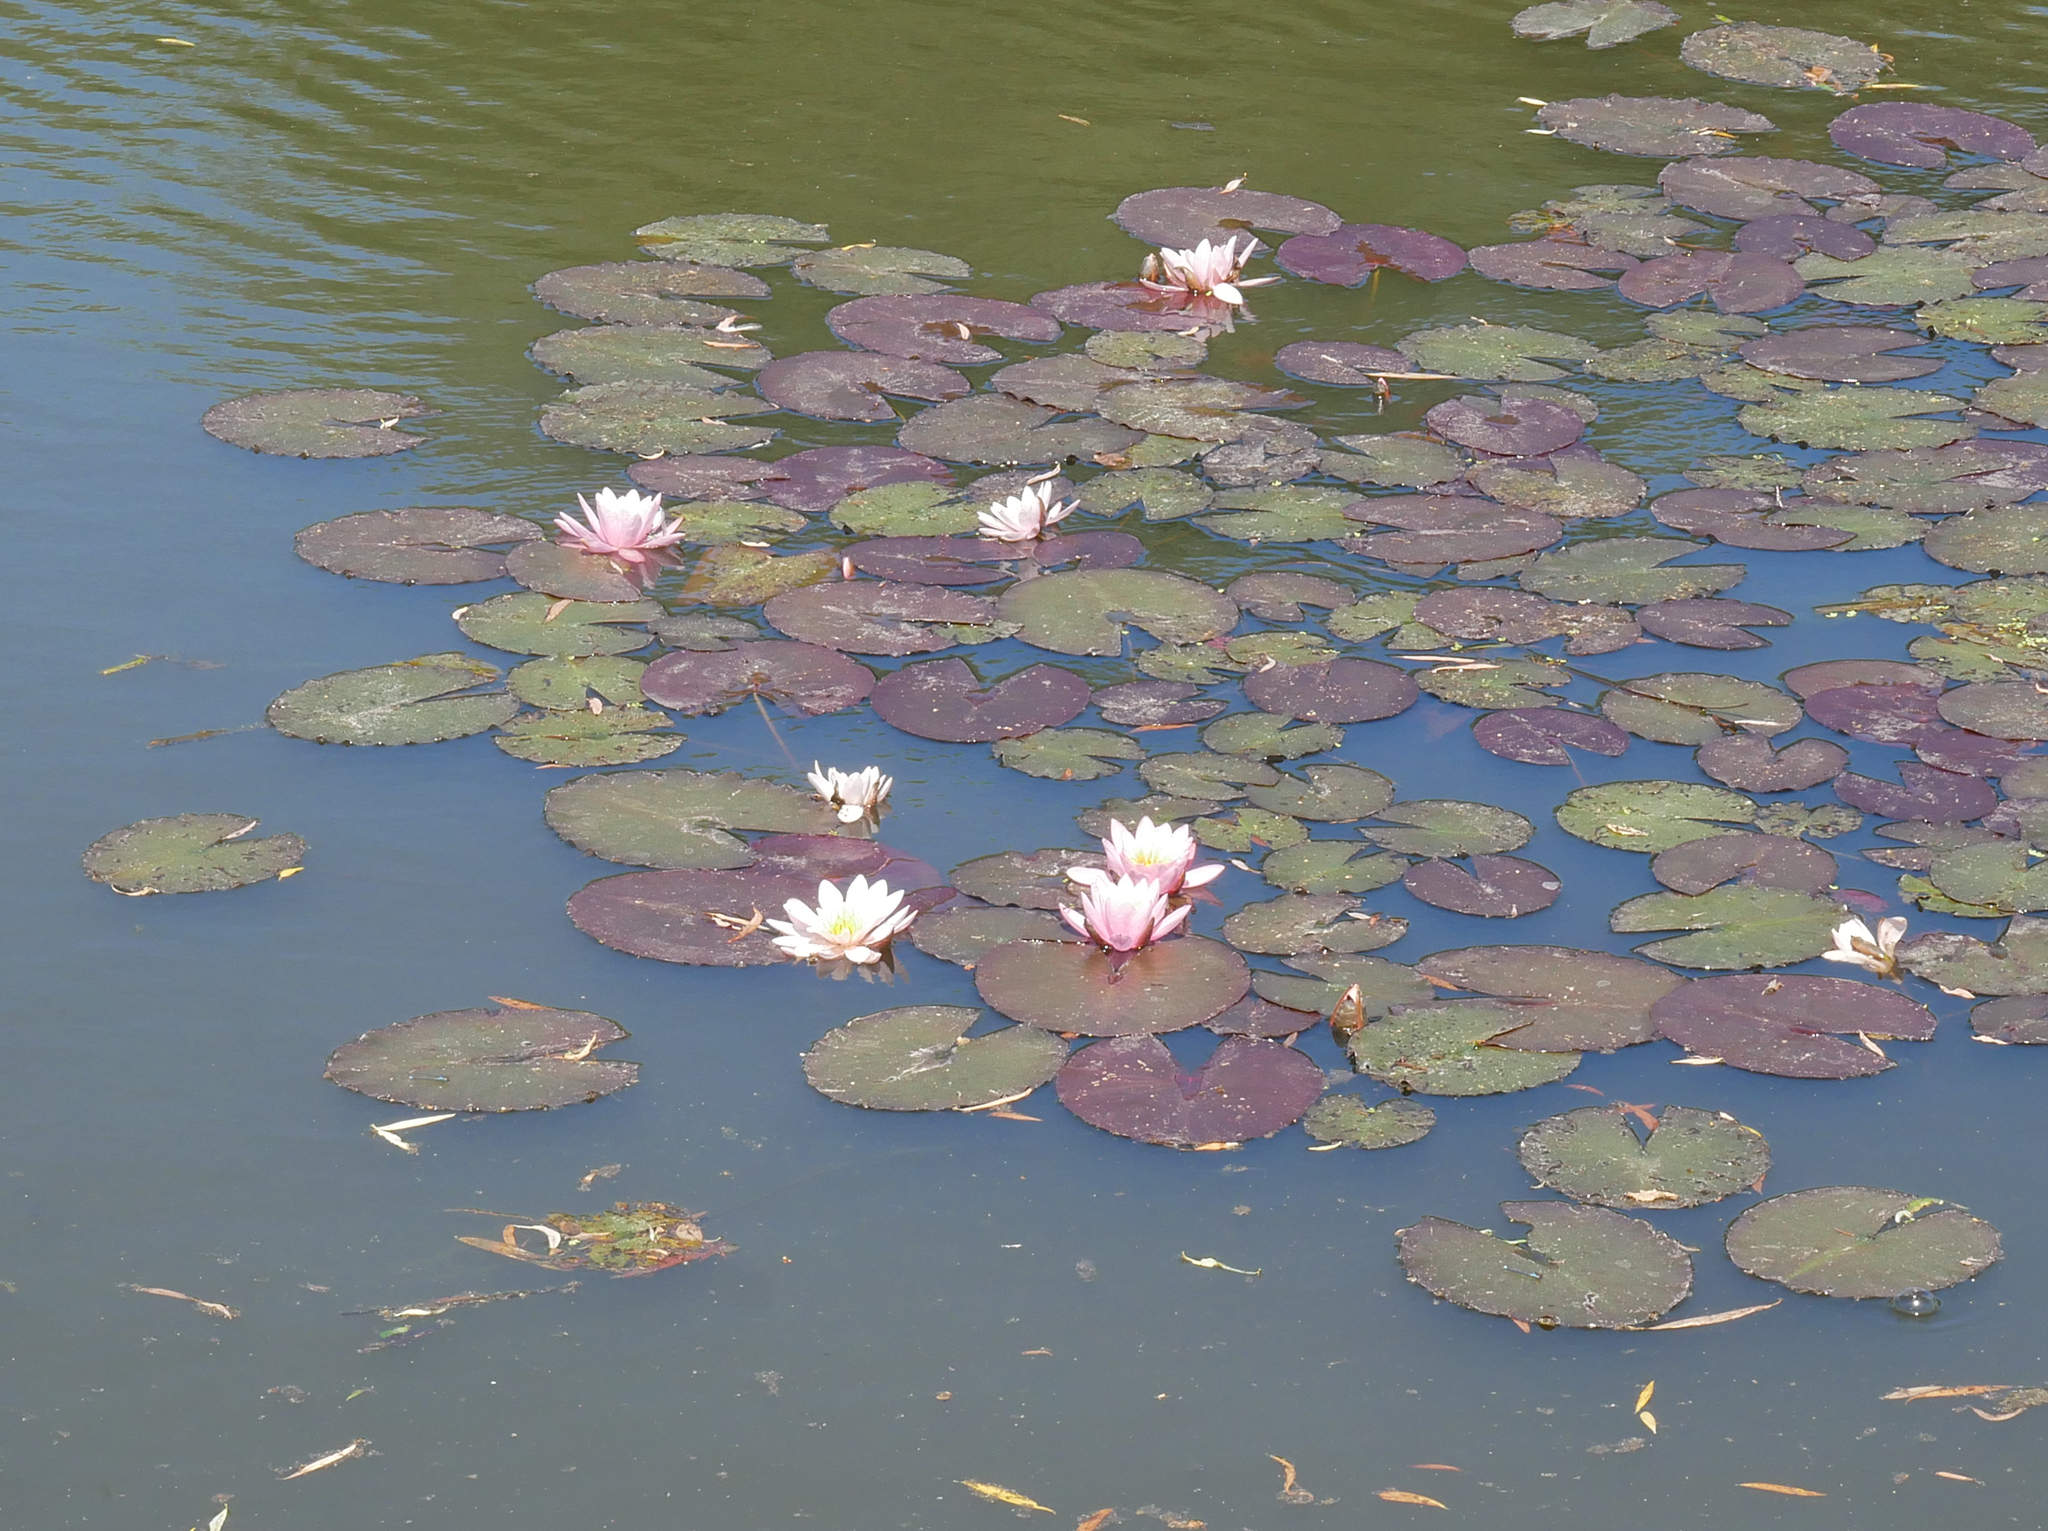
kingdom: Plantae
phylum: Tracheophyta
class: Magnoliopsida
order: Nymphaeales
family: Nymphaeaceae
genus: Nymphaea
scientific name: Nymphaea alba
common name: White water-lily
